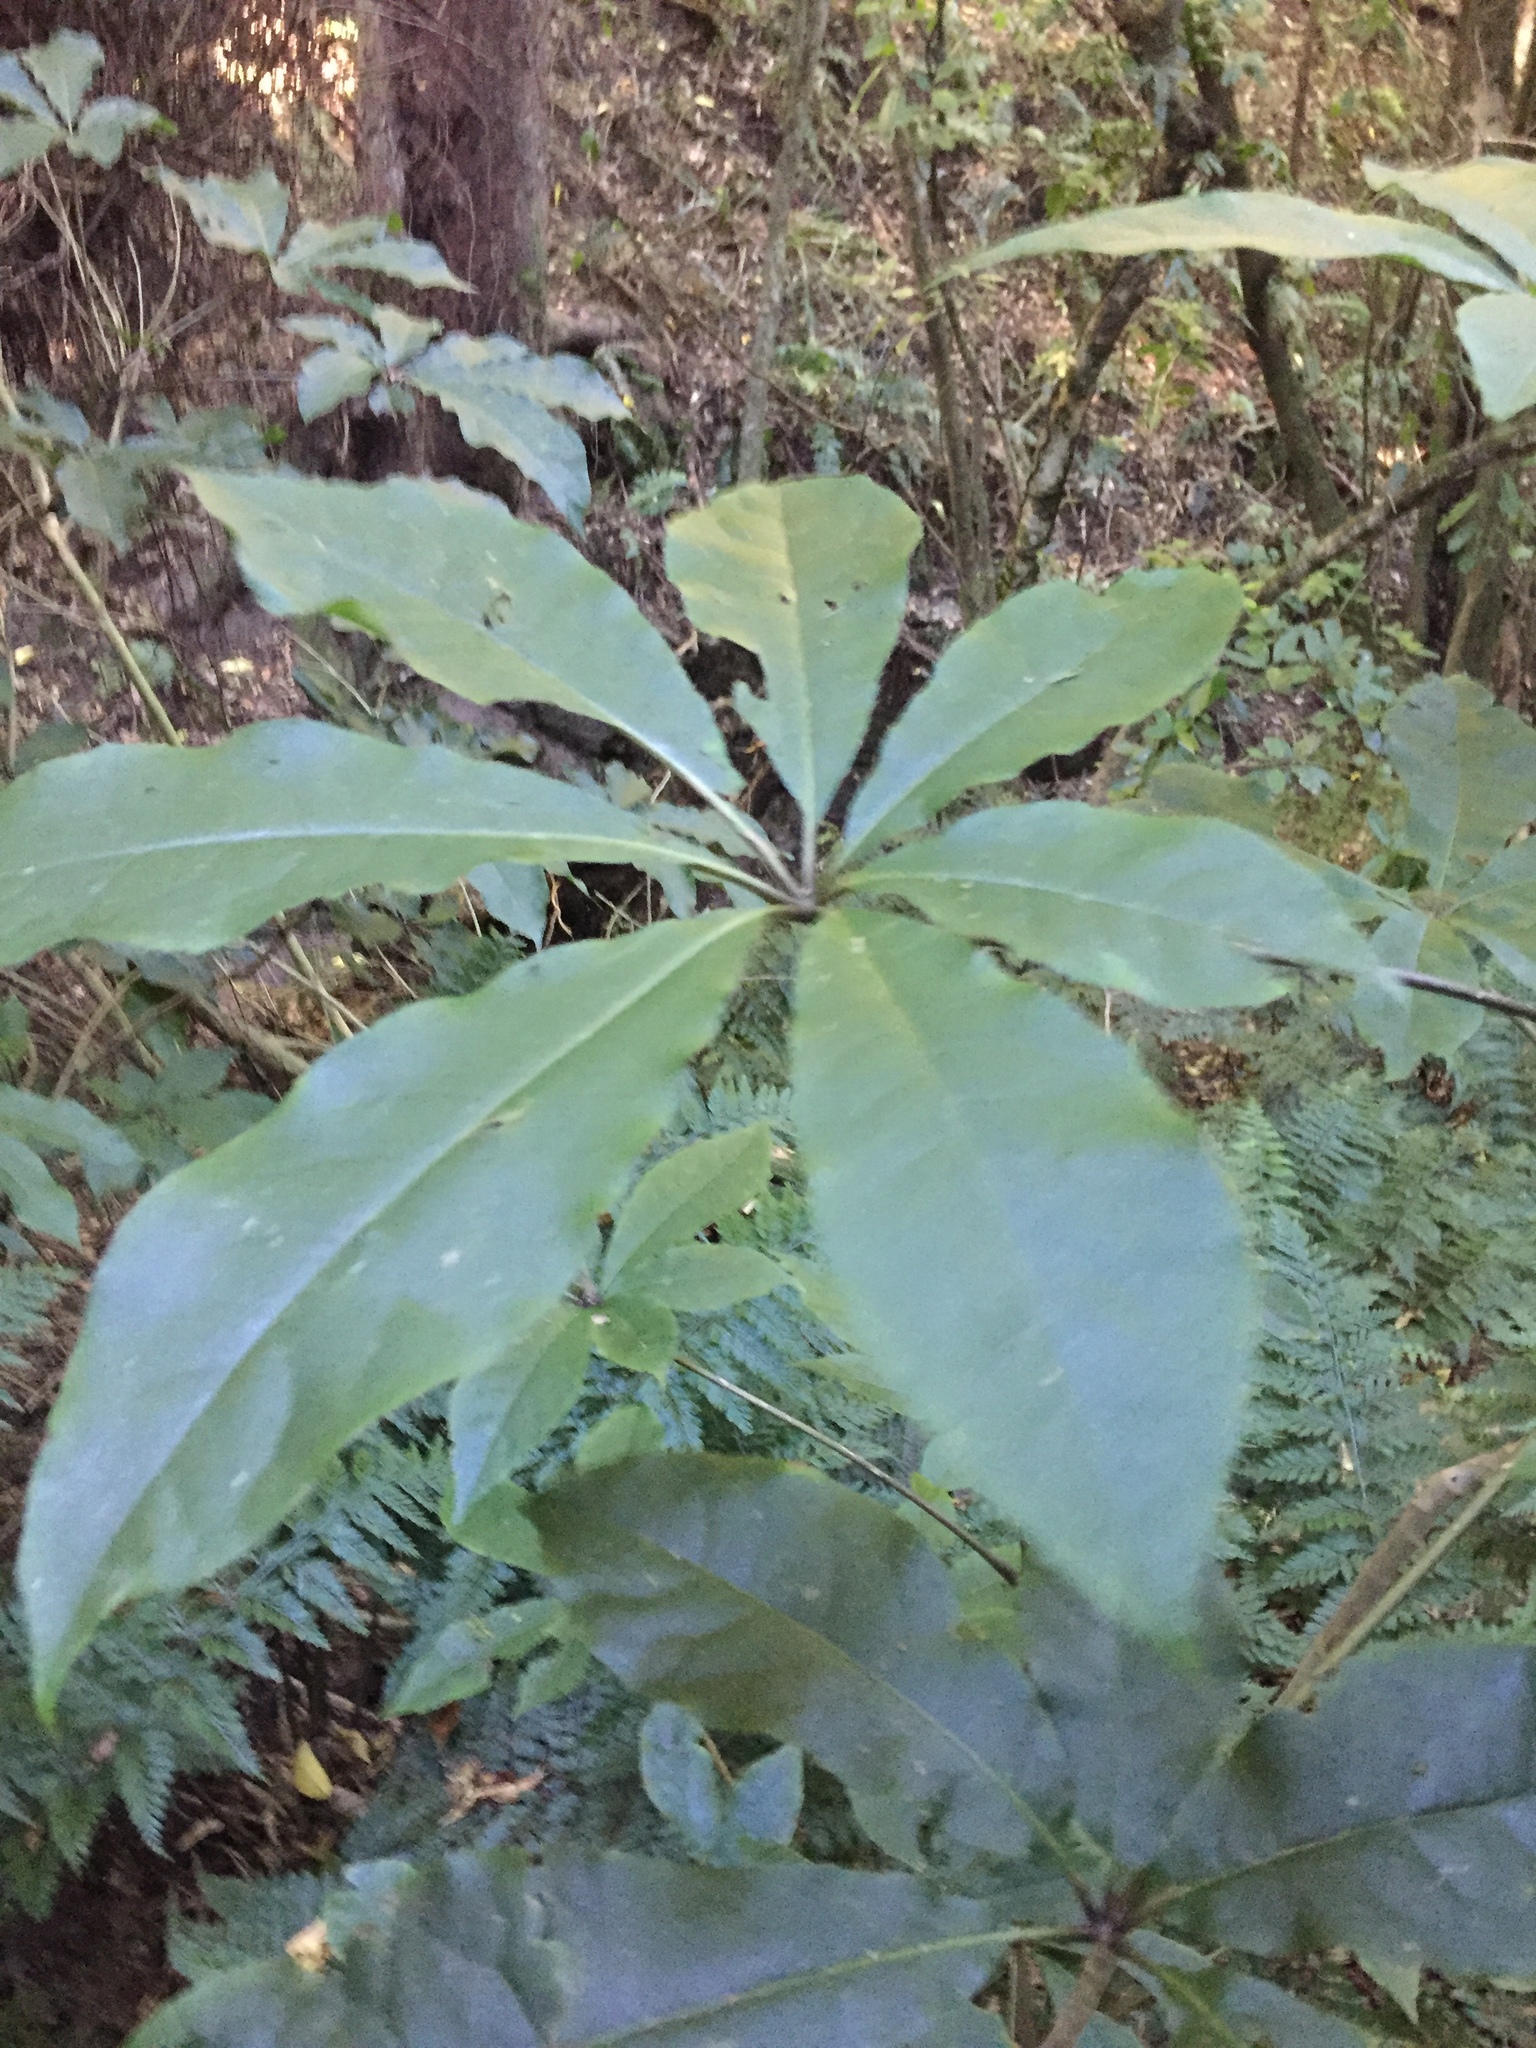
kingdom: Plantae
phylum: Tracheophyta
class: Magnoliopsida
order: Apiales
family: Araliaceae
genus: Schefflera
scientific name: Schefflera digitata
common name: Pate
